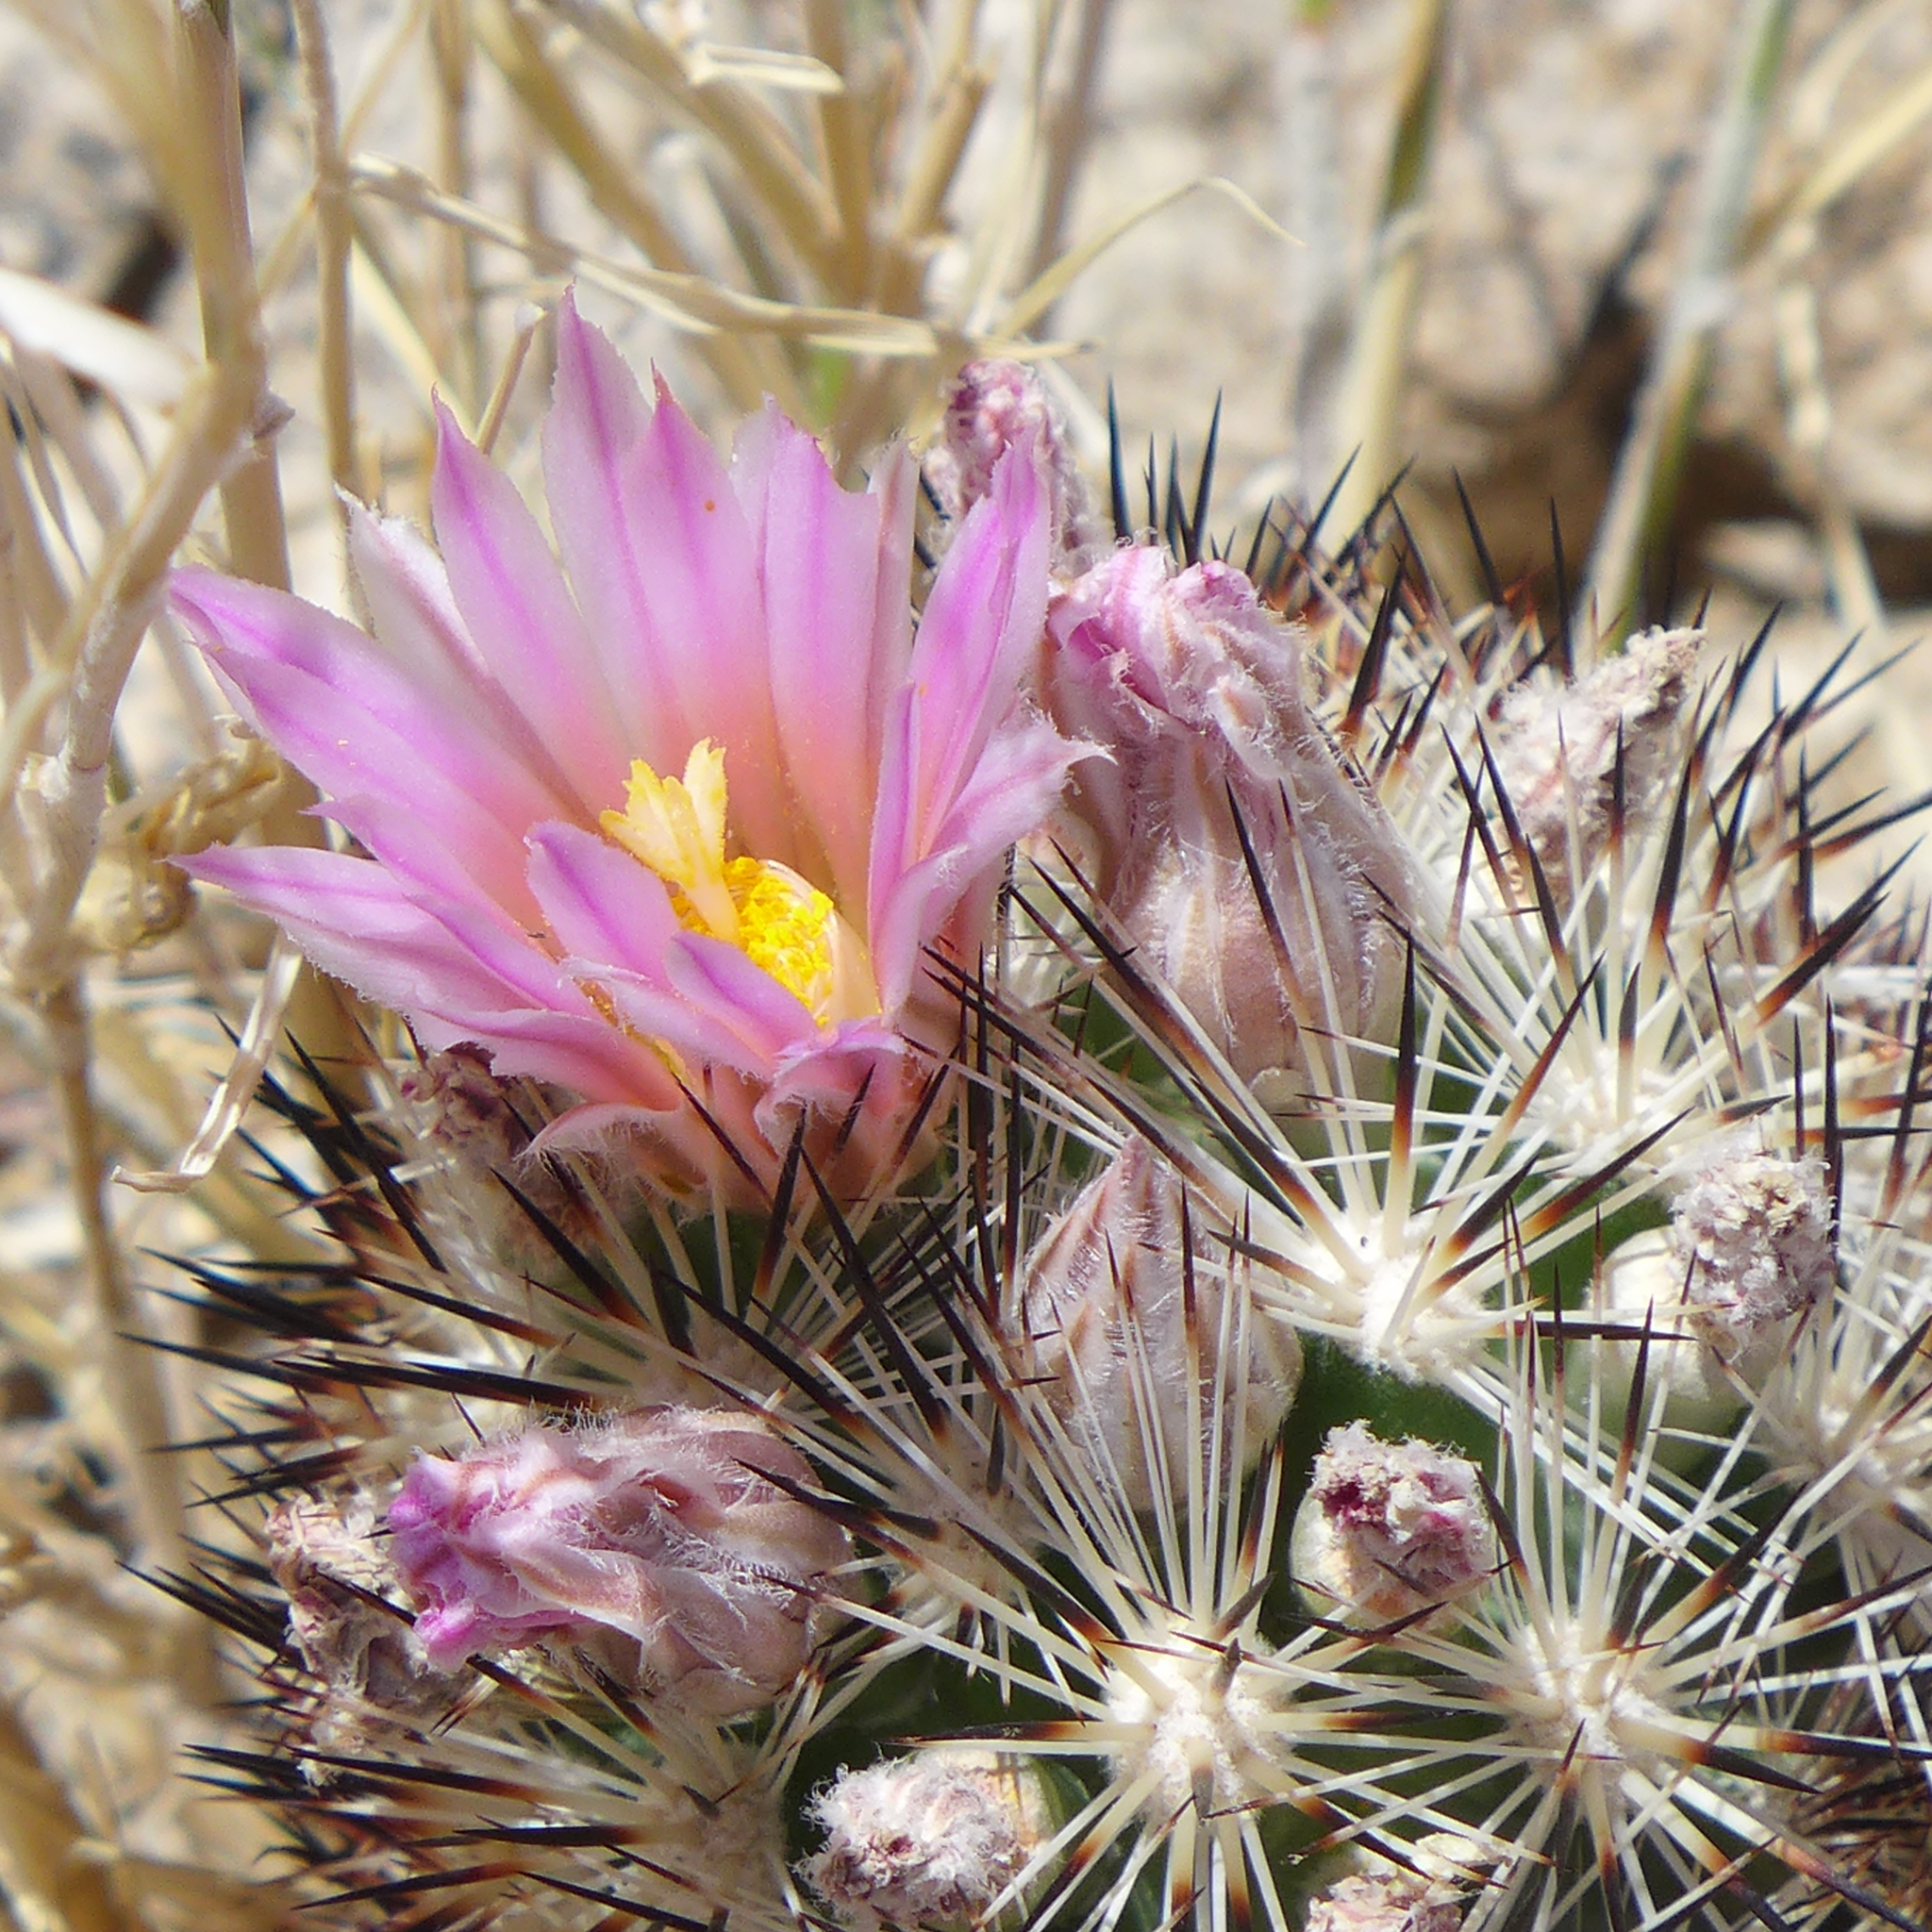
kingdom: Plantae
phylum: Tracheophyta
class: Magnoliopsida
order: Caryophyllales
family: Cactaceae
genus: Pelecyphora
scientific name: Pelecyphora alversonii
